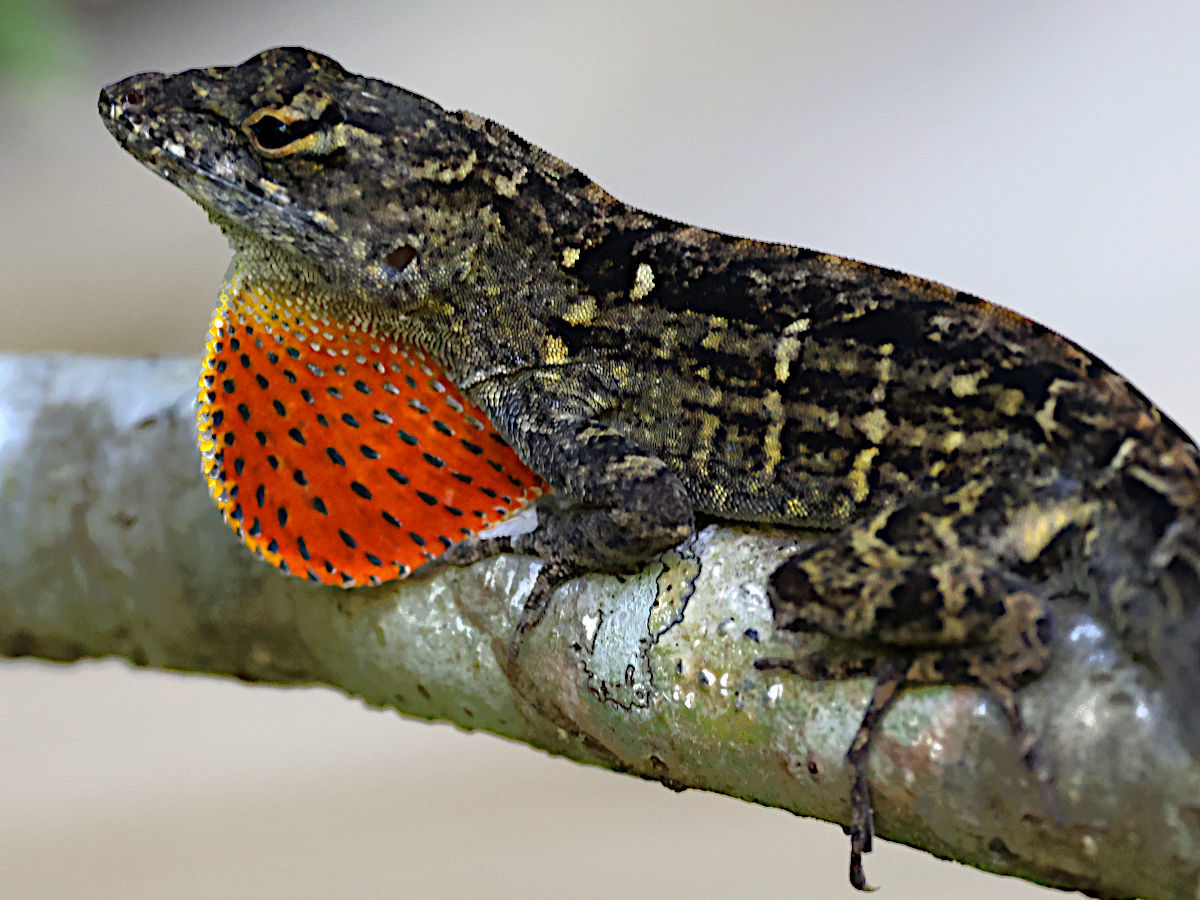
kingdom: Animalia
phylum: Chordata
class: Squamata
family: Dactyloidae
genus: Anolis
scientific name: Anolis sagrei
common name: Brown anole
